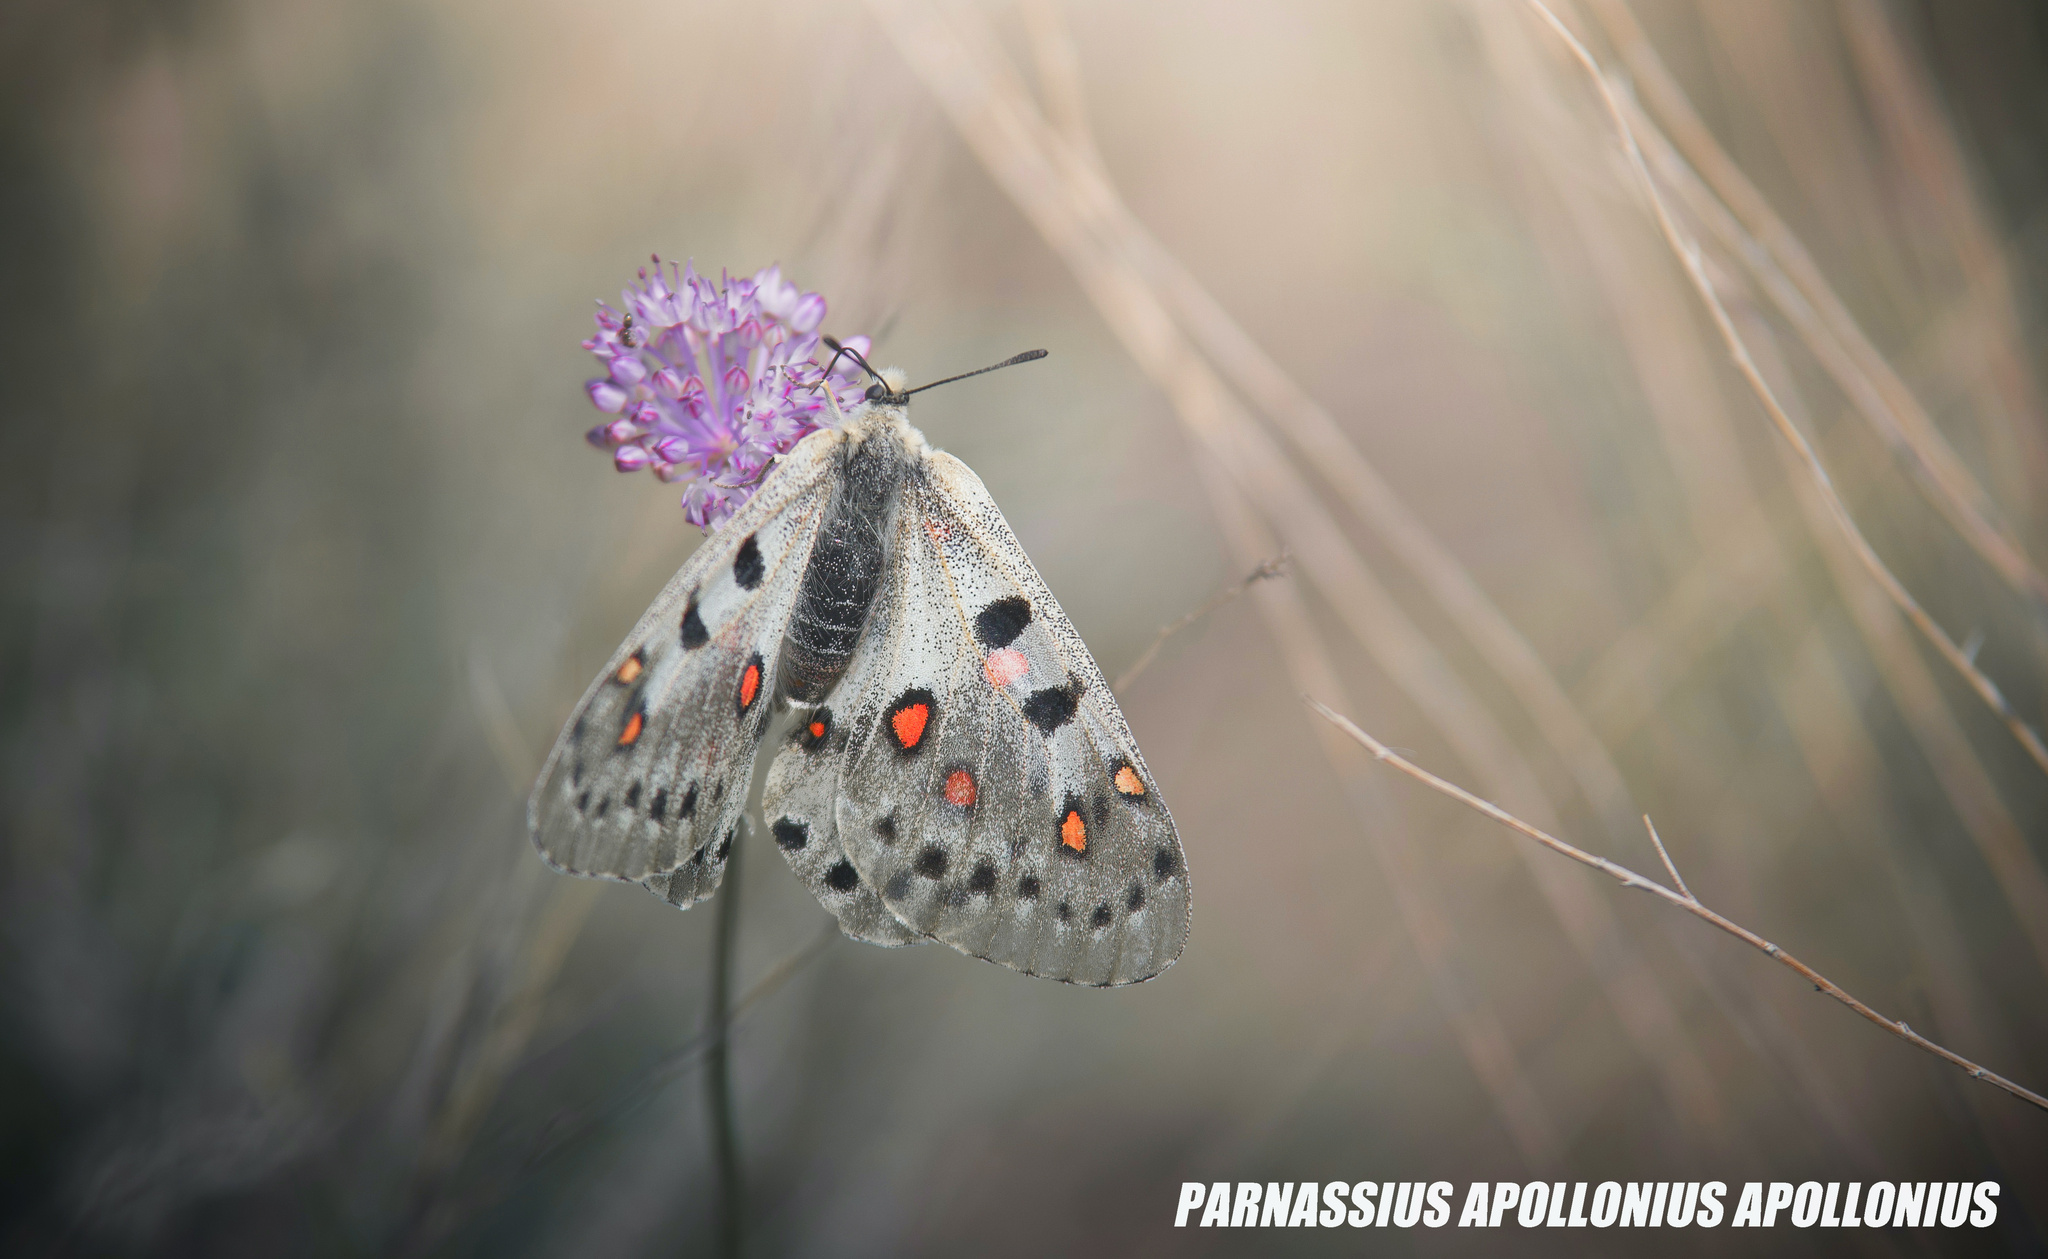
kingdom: Animalia
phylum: Arthropoda
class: Insecta
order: Lepidoptera
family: Papilionidae
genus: Parnassius
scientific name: Parnassius apollonius
